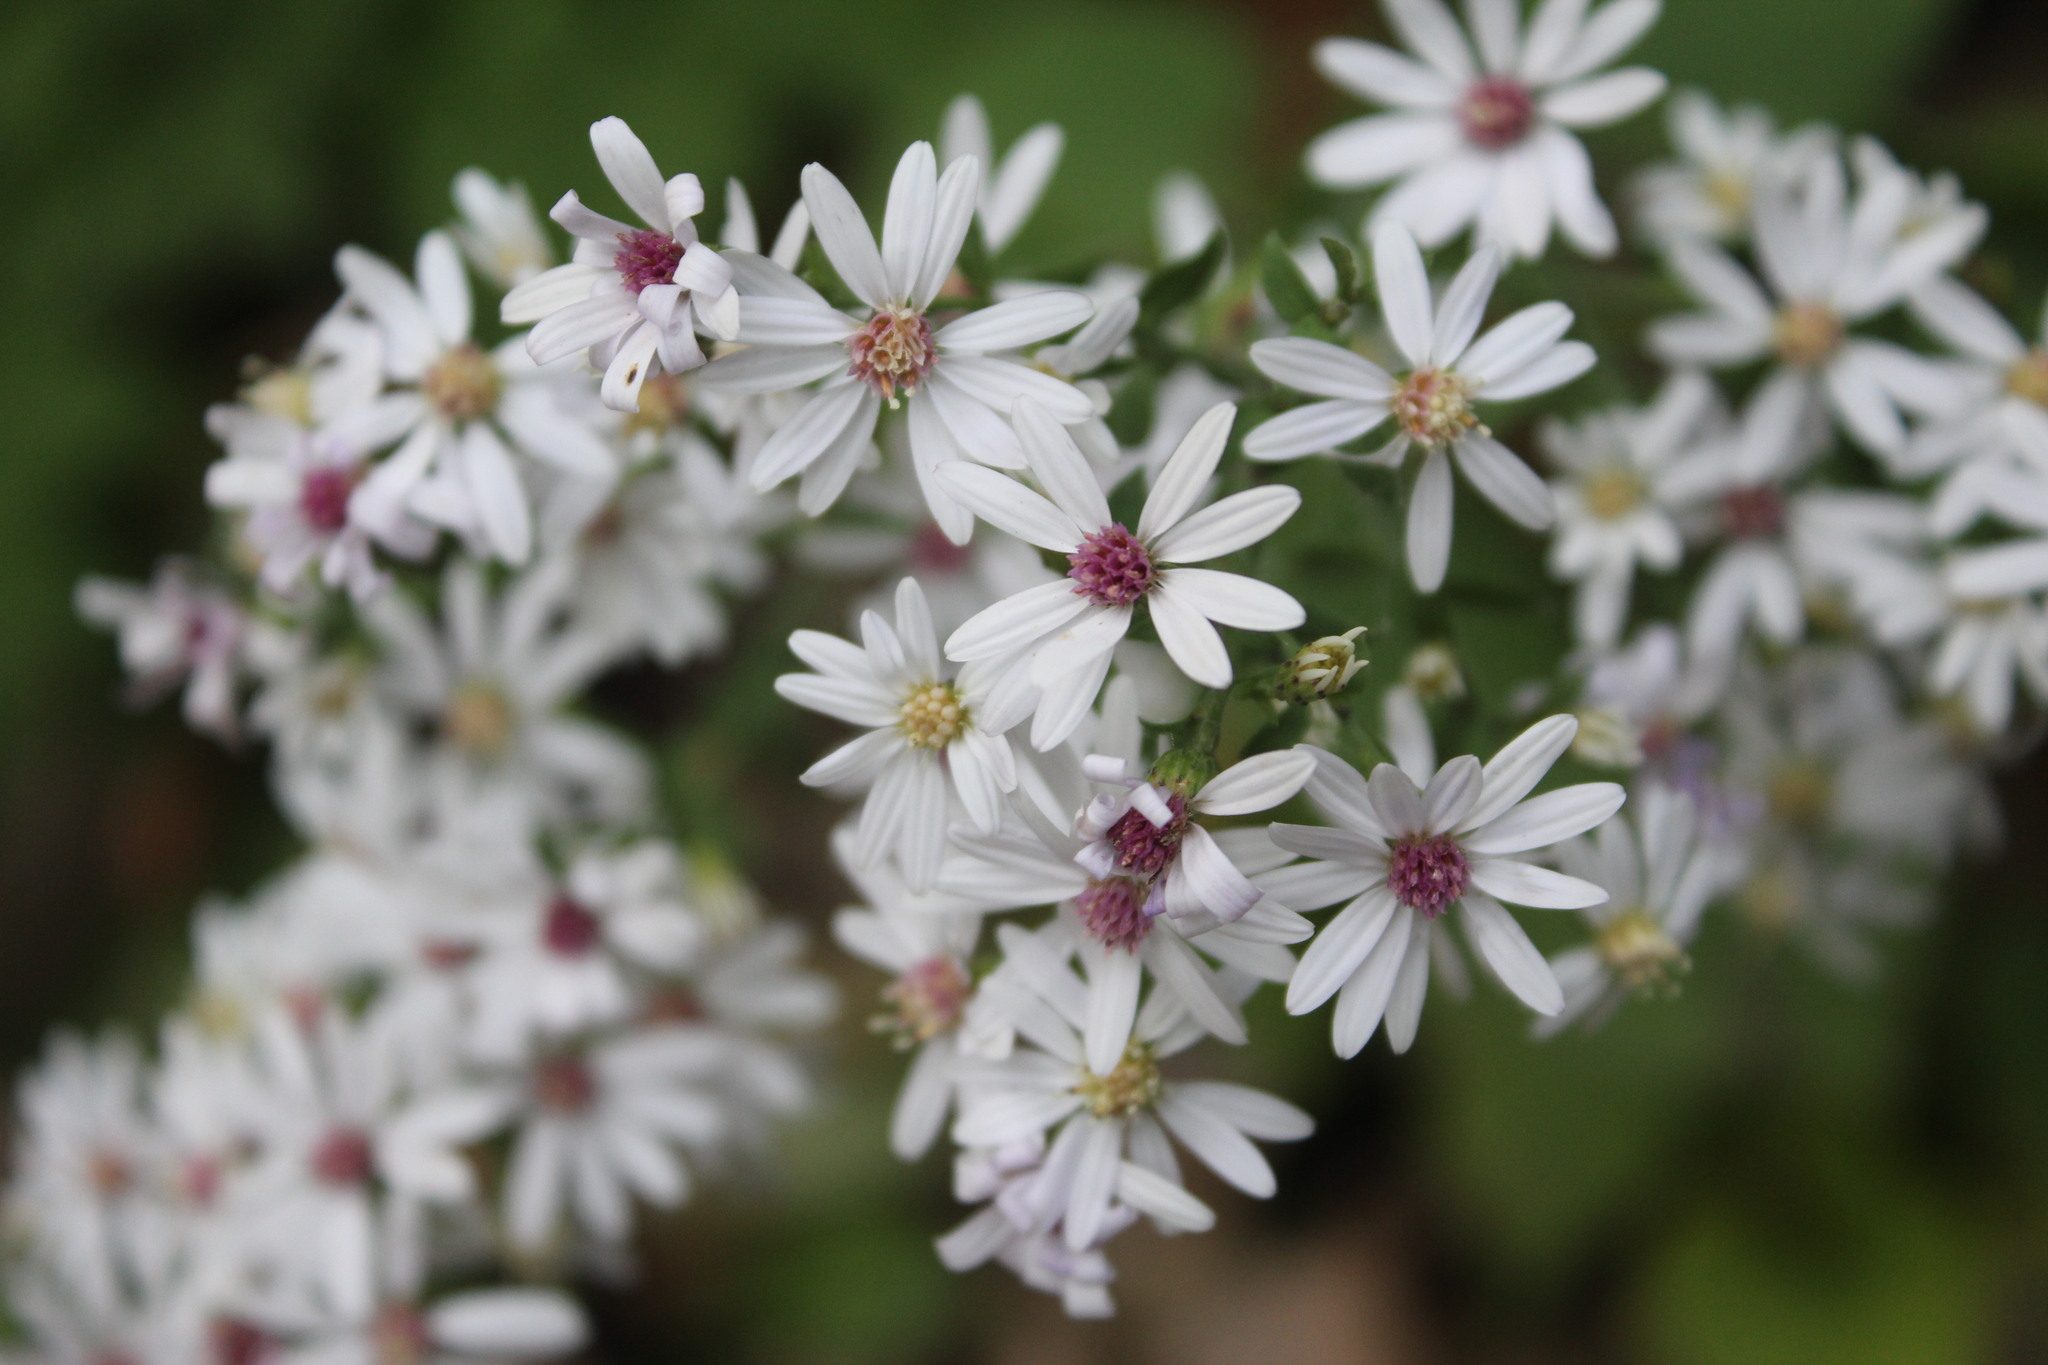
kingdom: Plantae
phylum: Tracheophyta
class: Magnoliopsida
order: Asterales
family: Asteraceae
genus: Symphyotrichum
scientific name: Symphyotrichum cordifolium
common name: Beeweed
